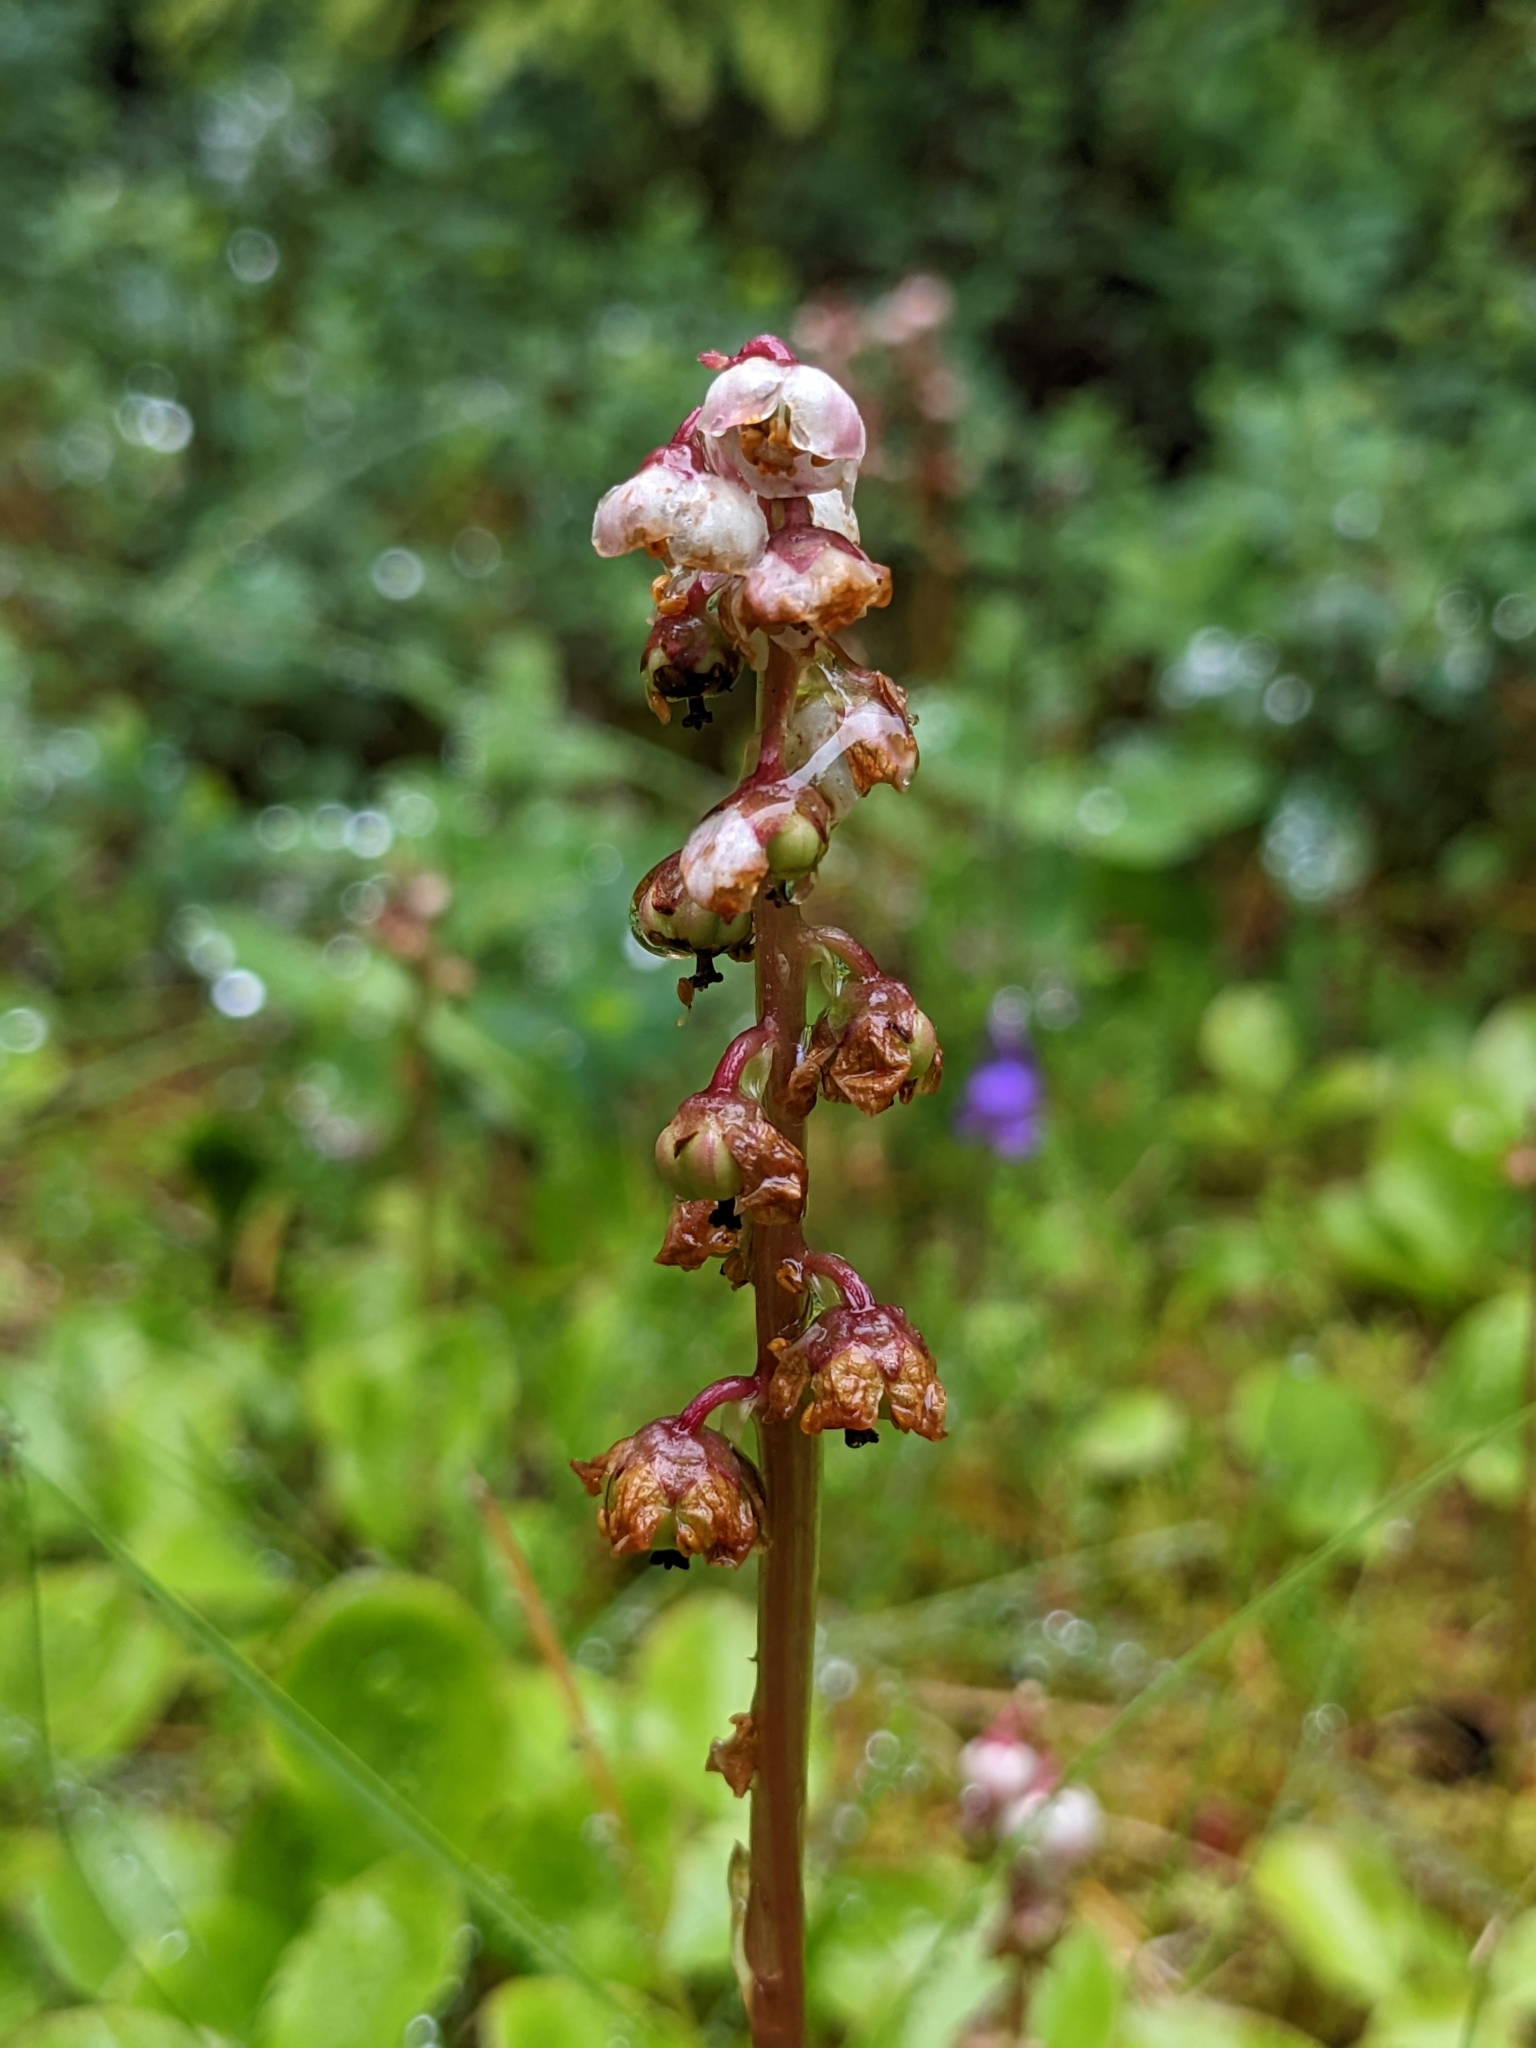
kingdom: Plantae
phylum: Tracheophyta
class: Magnoliopsida
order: Ericales
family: Ericaceae
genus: Pyrola
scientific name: Pyrola minor
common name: Common wintergreen
